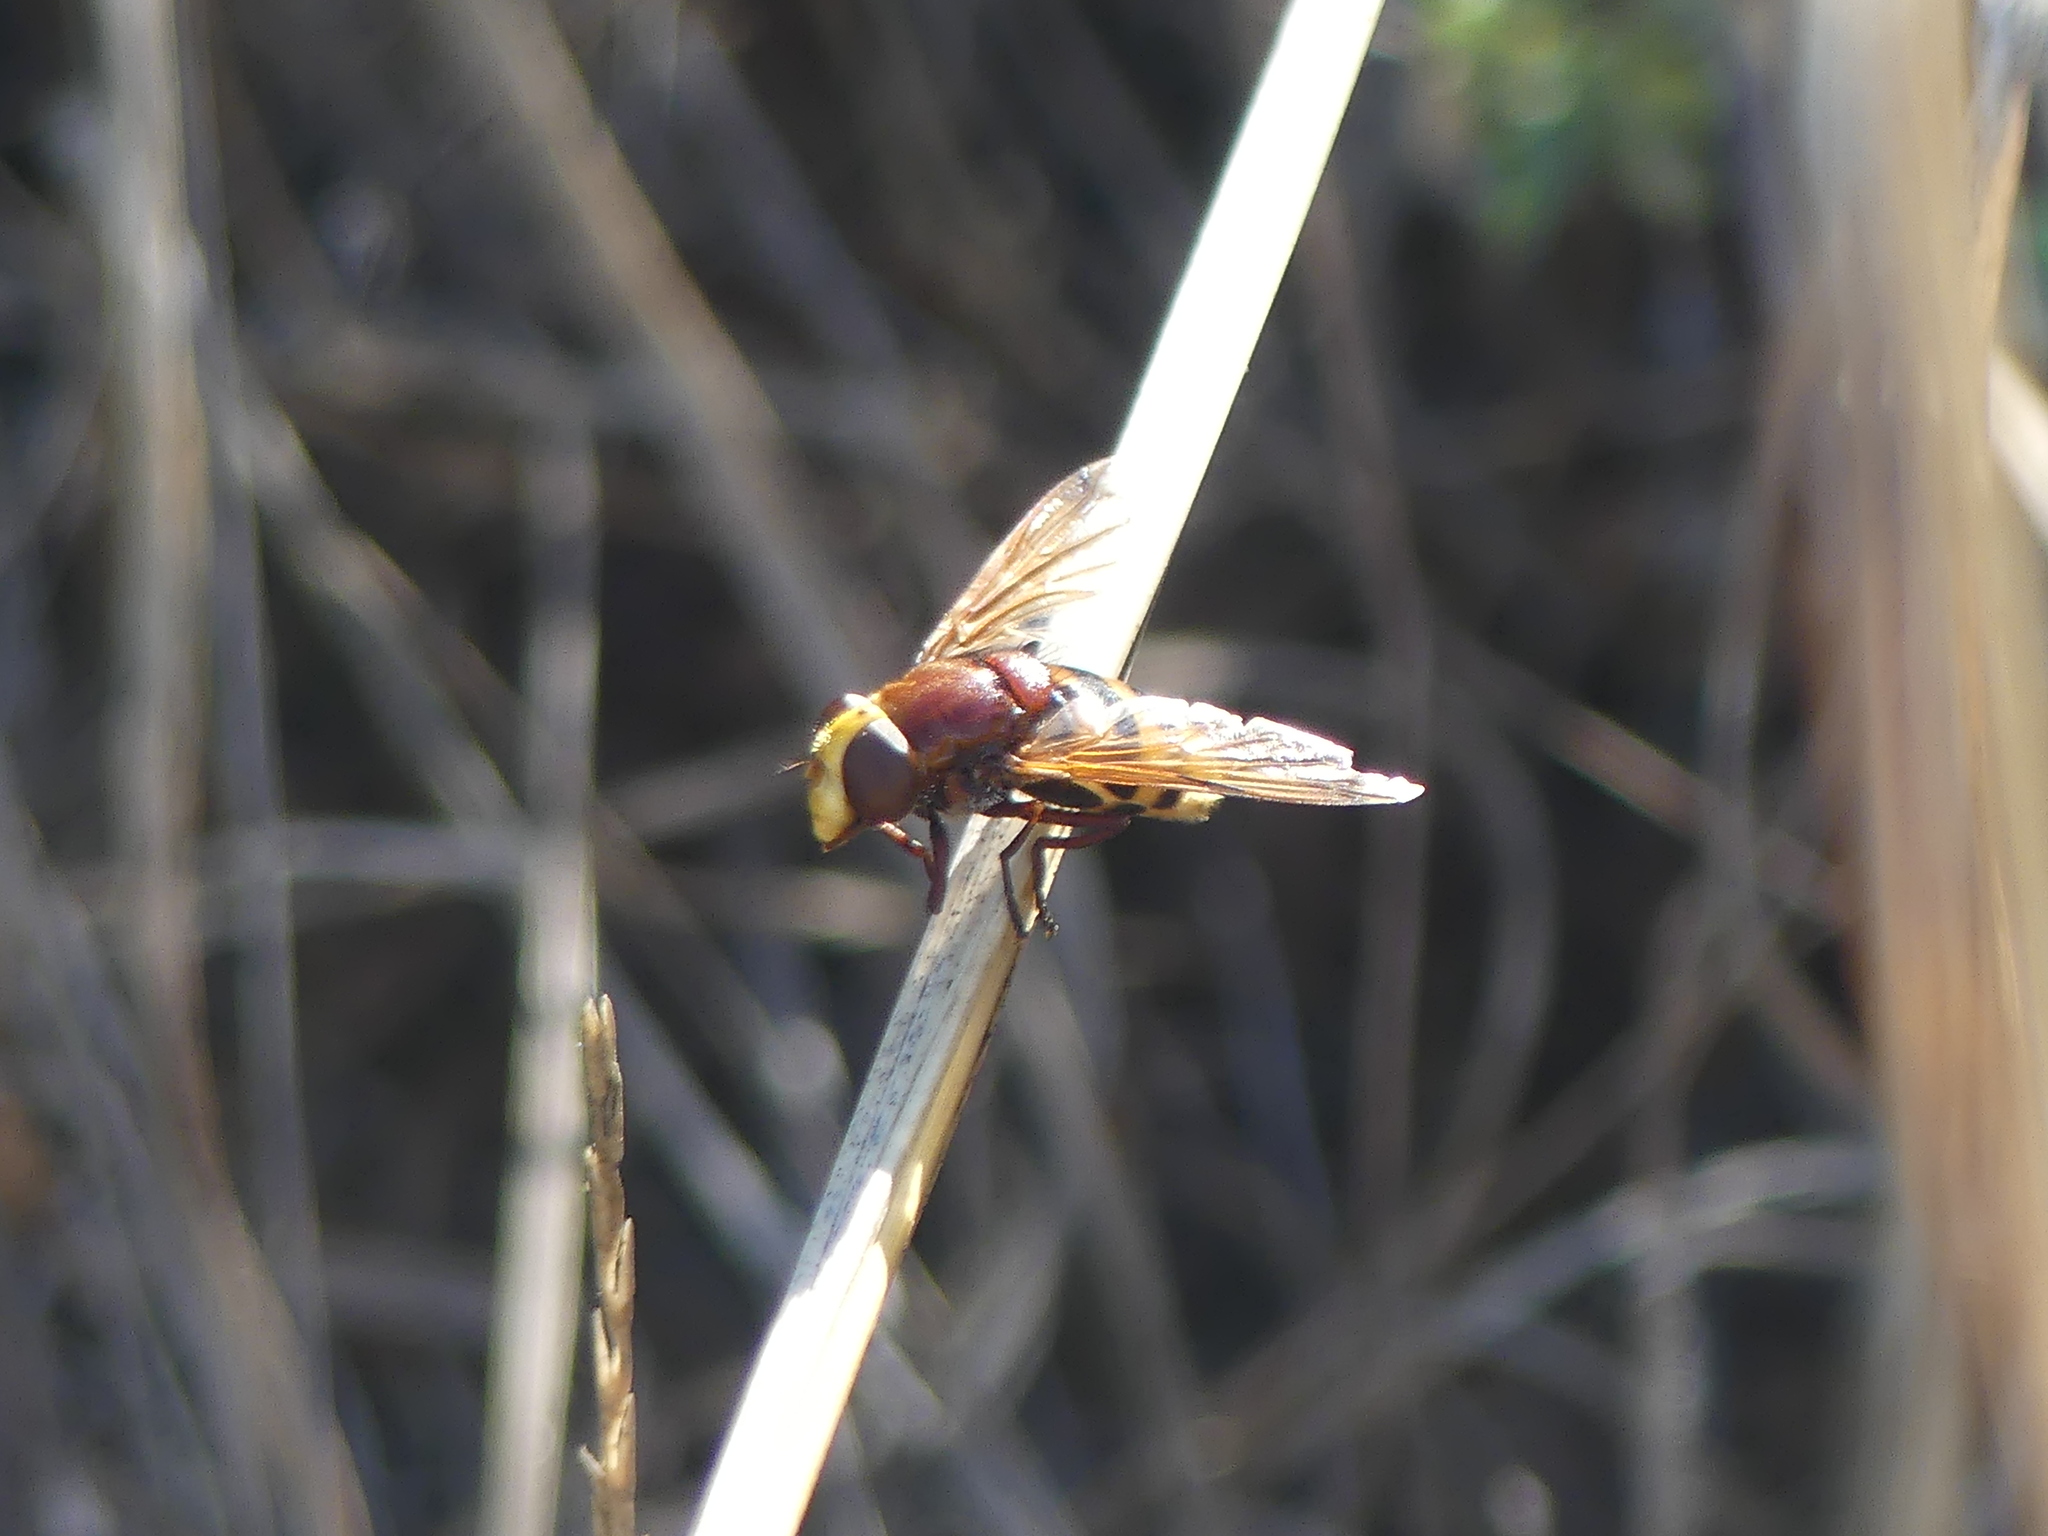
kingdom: Animalia
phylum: Arthropoda
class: Insecta
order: Diptera
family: Syrphidae
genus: Volucella
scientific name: Volucella zonaria
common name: Hornet hoverfly
